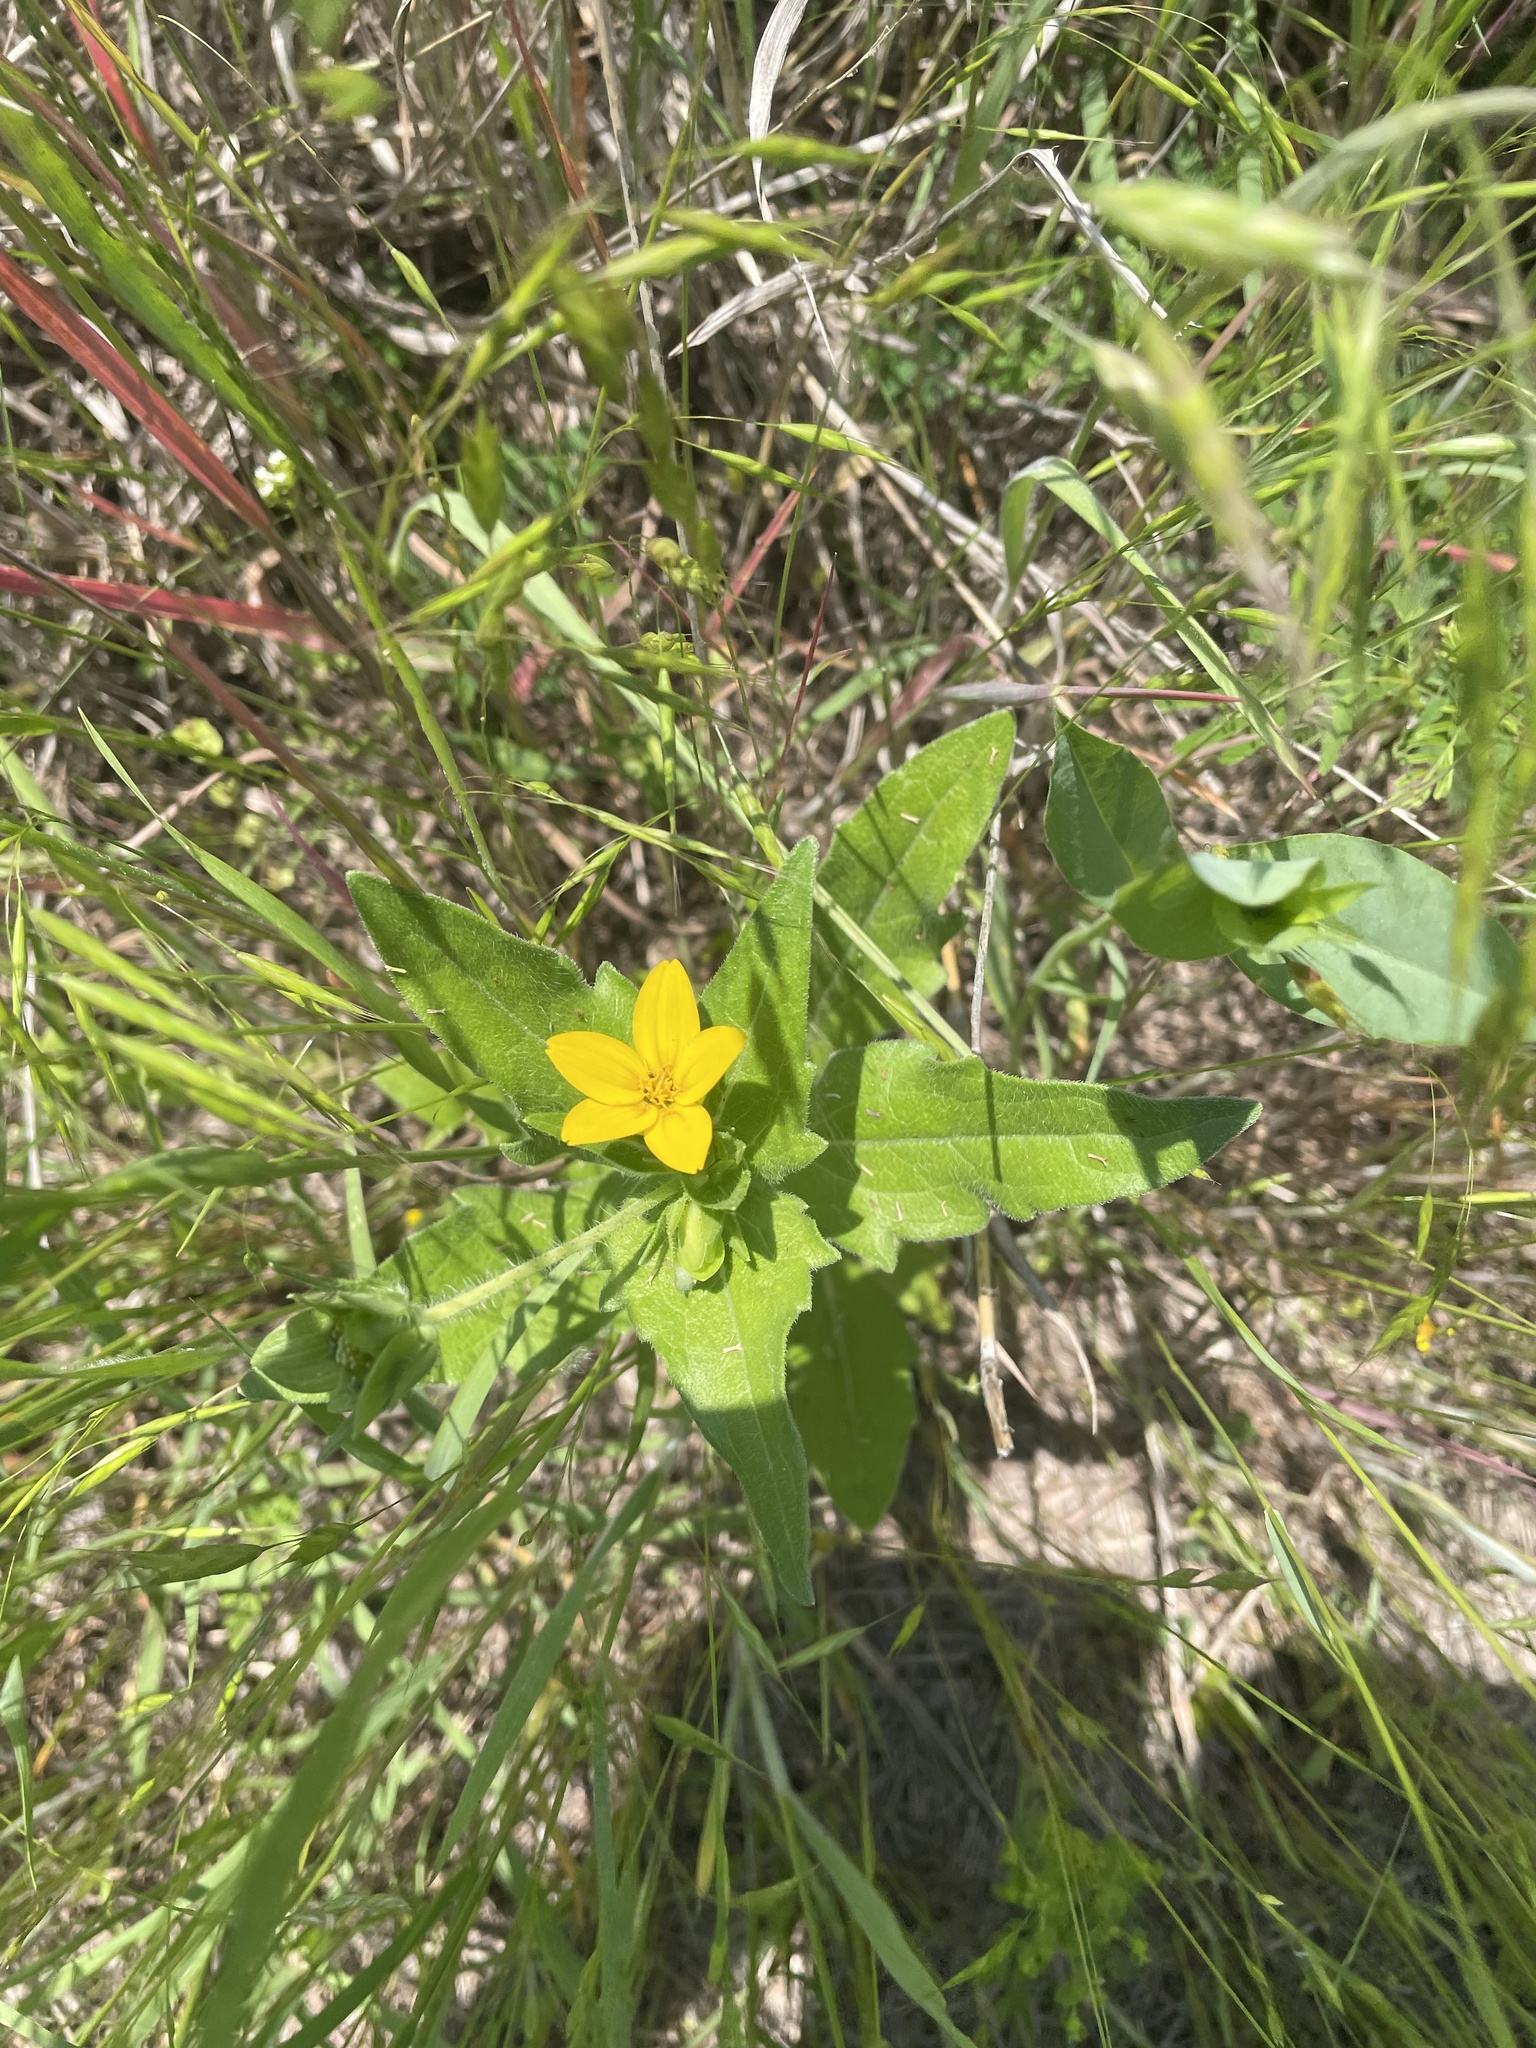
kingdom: Plantae
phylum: Tracheophyta
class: Magnoliopsida
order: Asterales
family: Asteraceae
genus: Lindheimera
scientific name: Lindheimera texana
